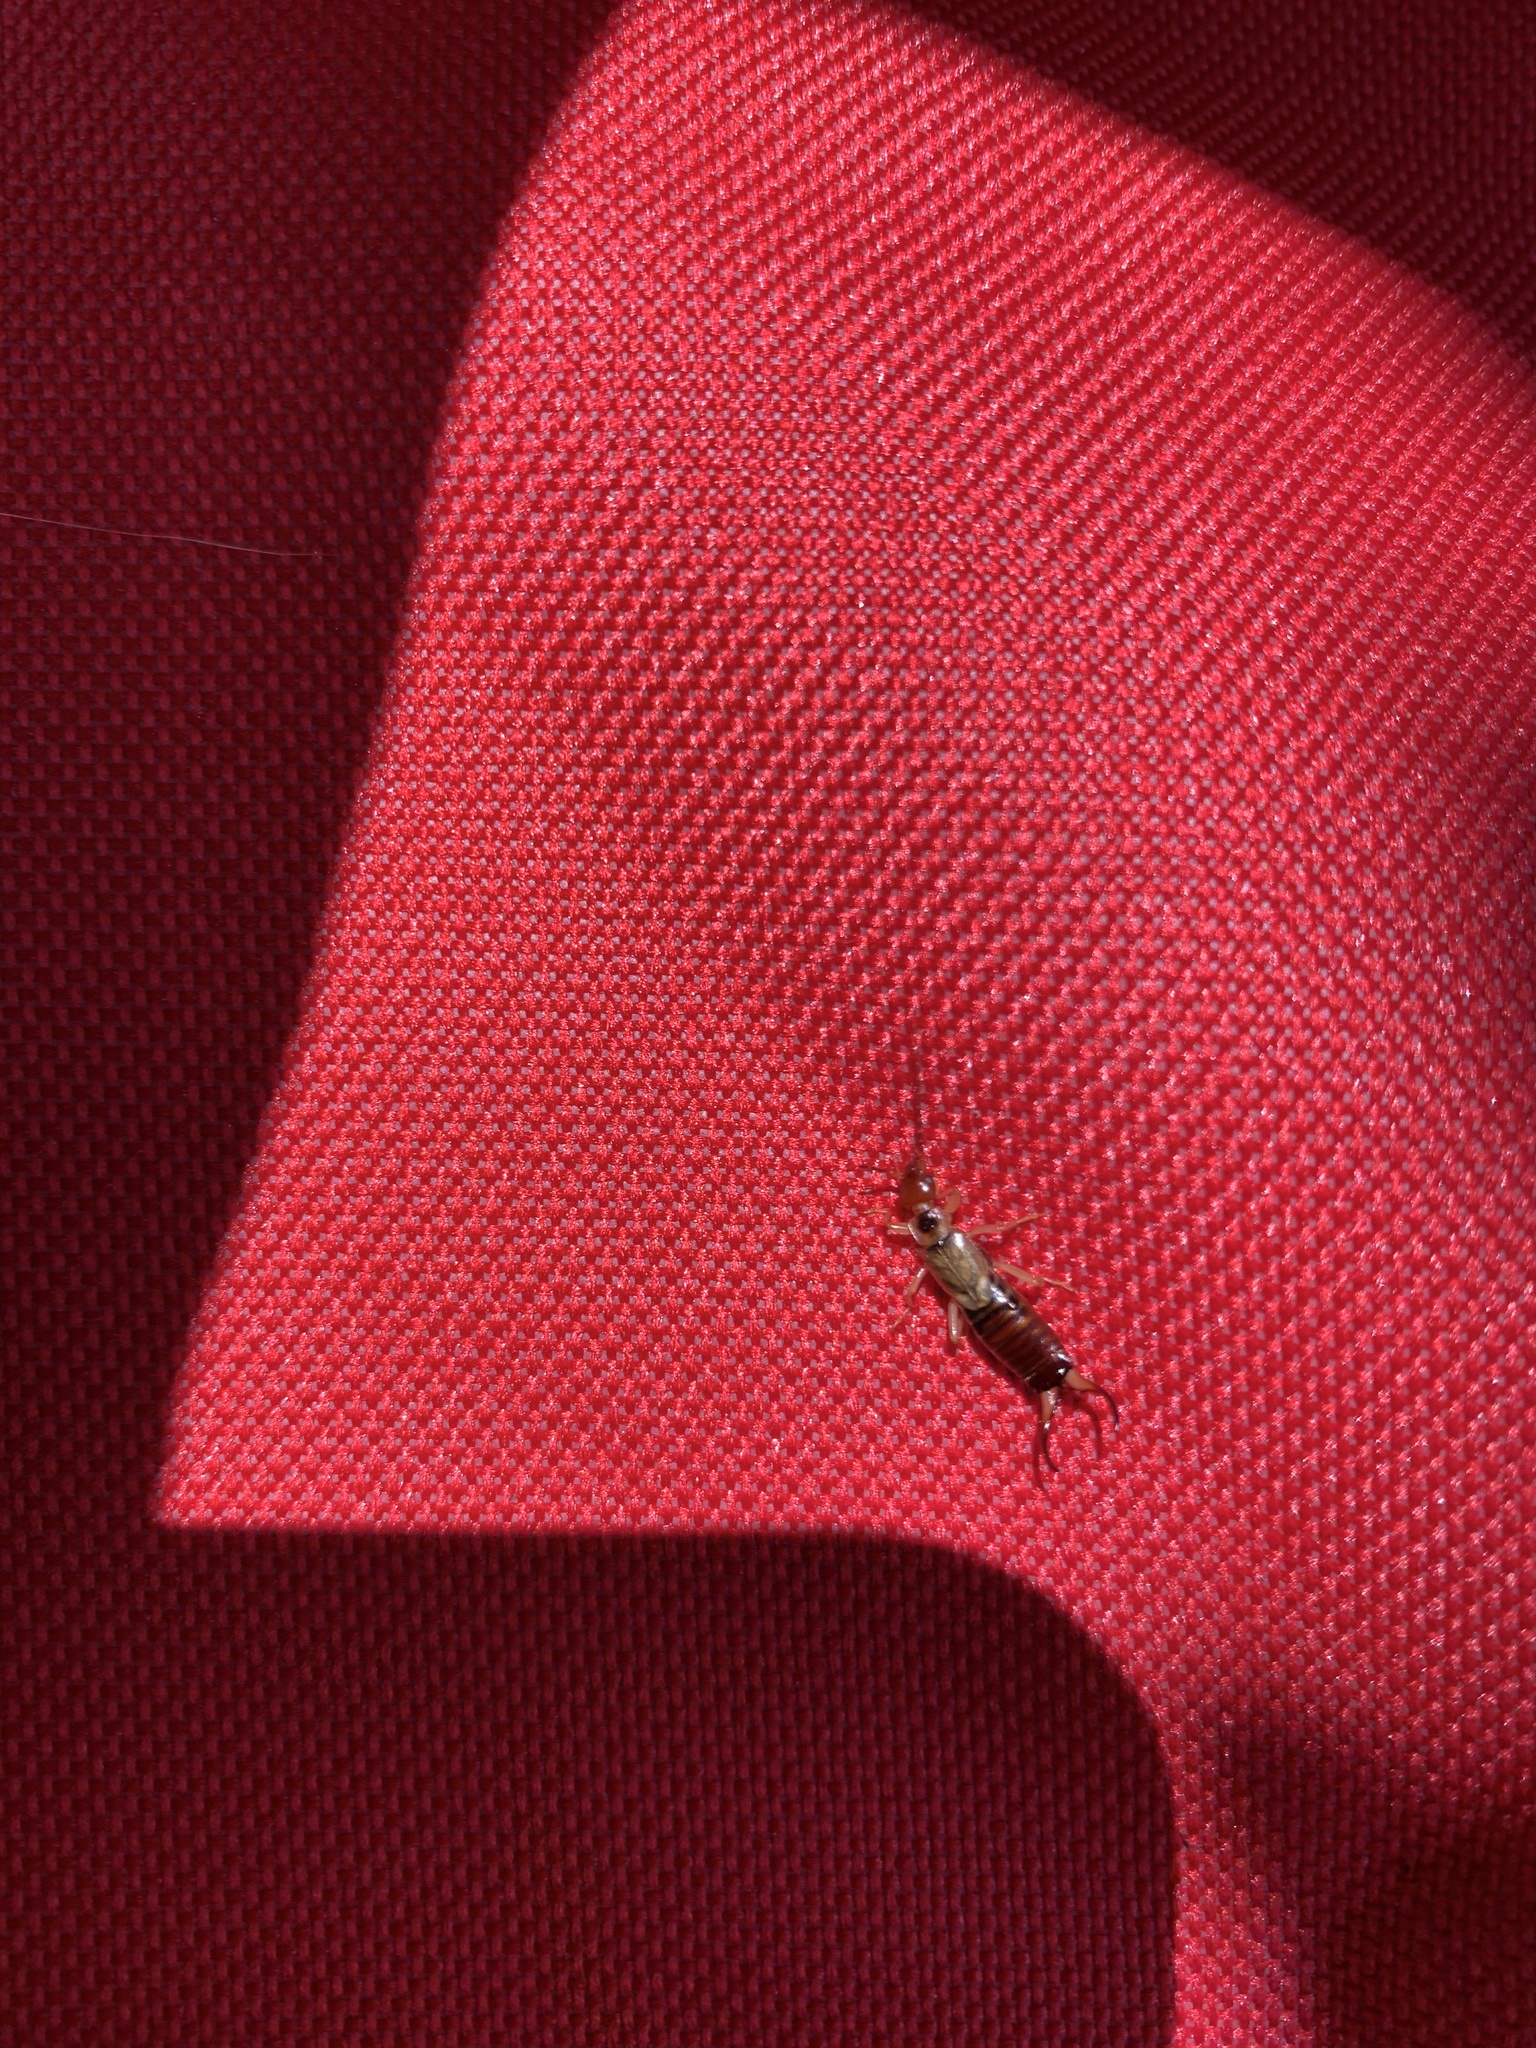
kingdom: Animalia
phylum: Arthropoda
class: Insecta
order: Dermaptera
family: Forficulidae
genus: Forficula
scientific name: Forficula
